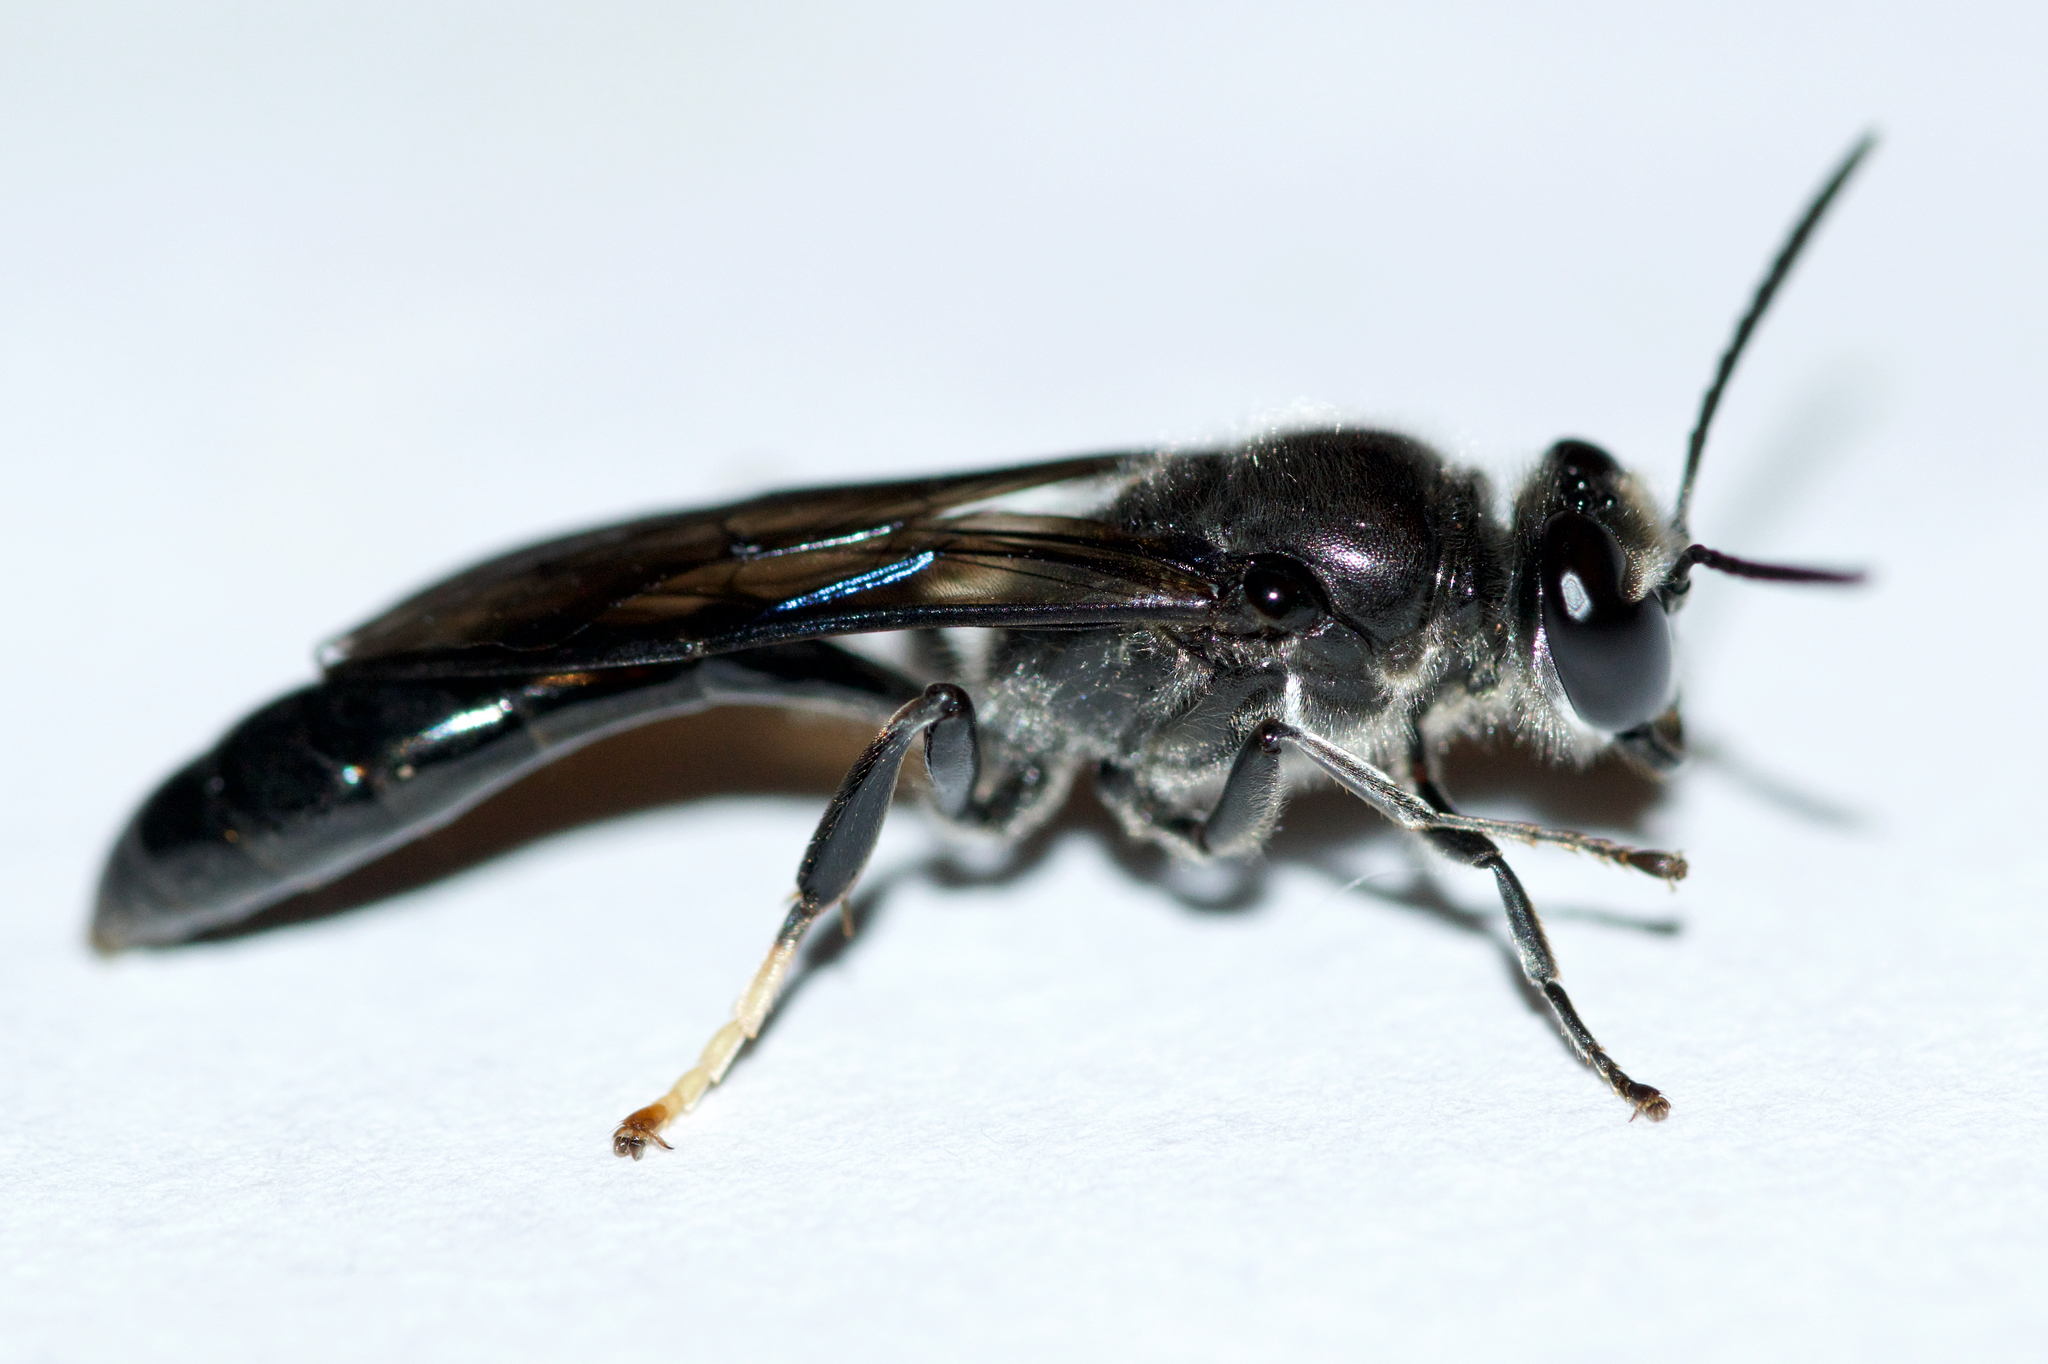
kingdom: Animalia
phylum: Arthropoda
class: Insecta
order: Hymenoptera
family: Crabronidae
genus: Trypoxylon
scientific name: Trypoxylon lactitarse
